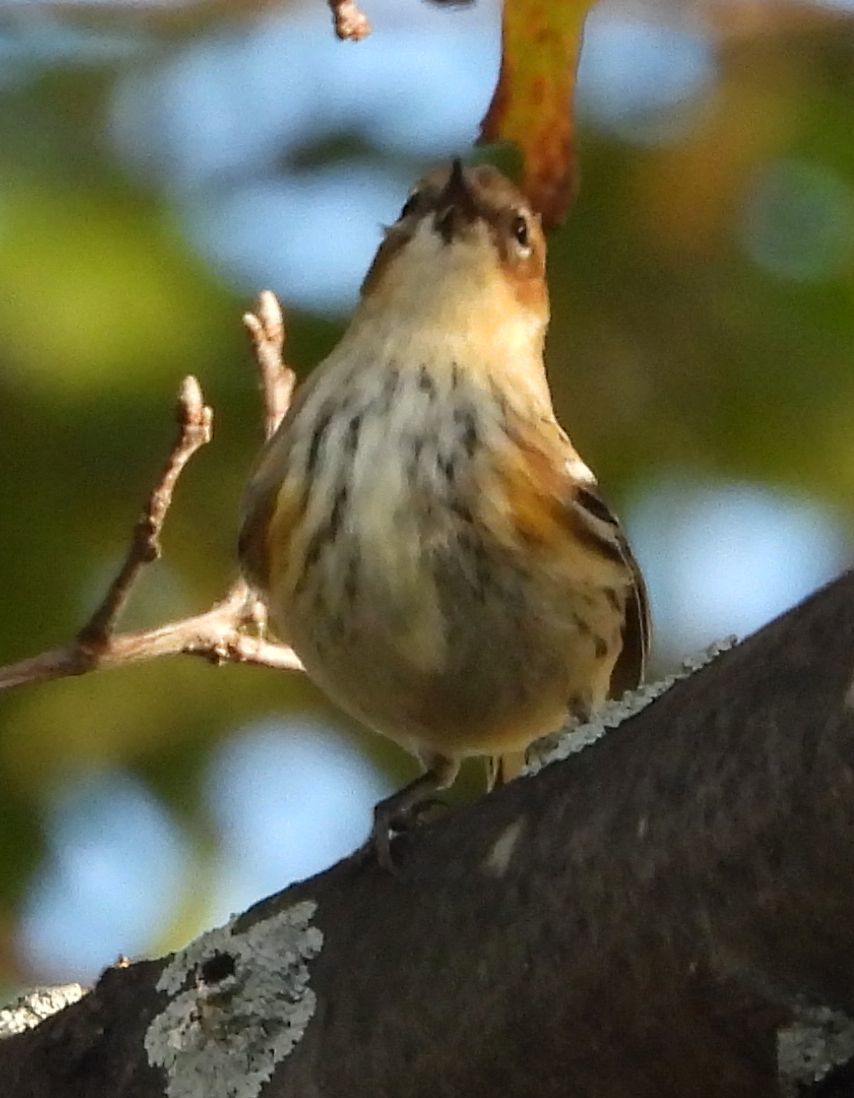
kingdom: Animalia
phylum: Chordata
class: Aves
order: Passeriformes
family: Parulidae
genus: Setophaga
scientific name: Setophaga coronata
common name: Myrtle warbler
